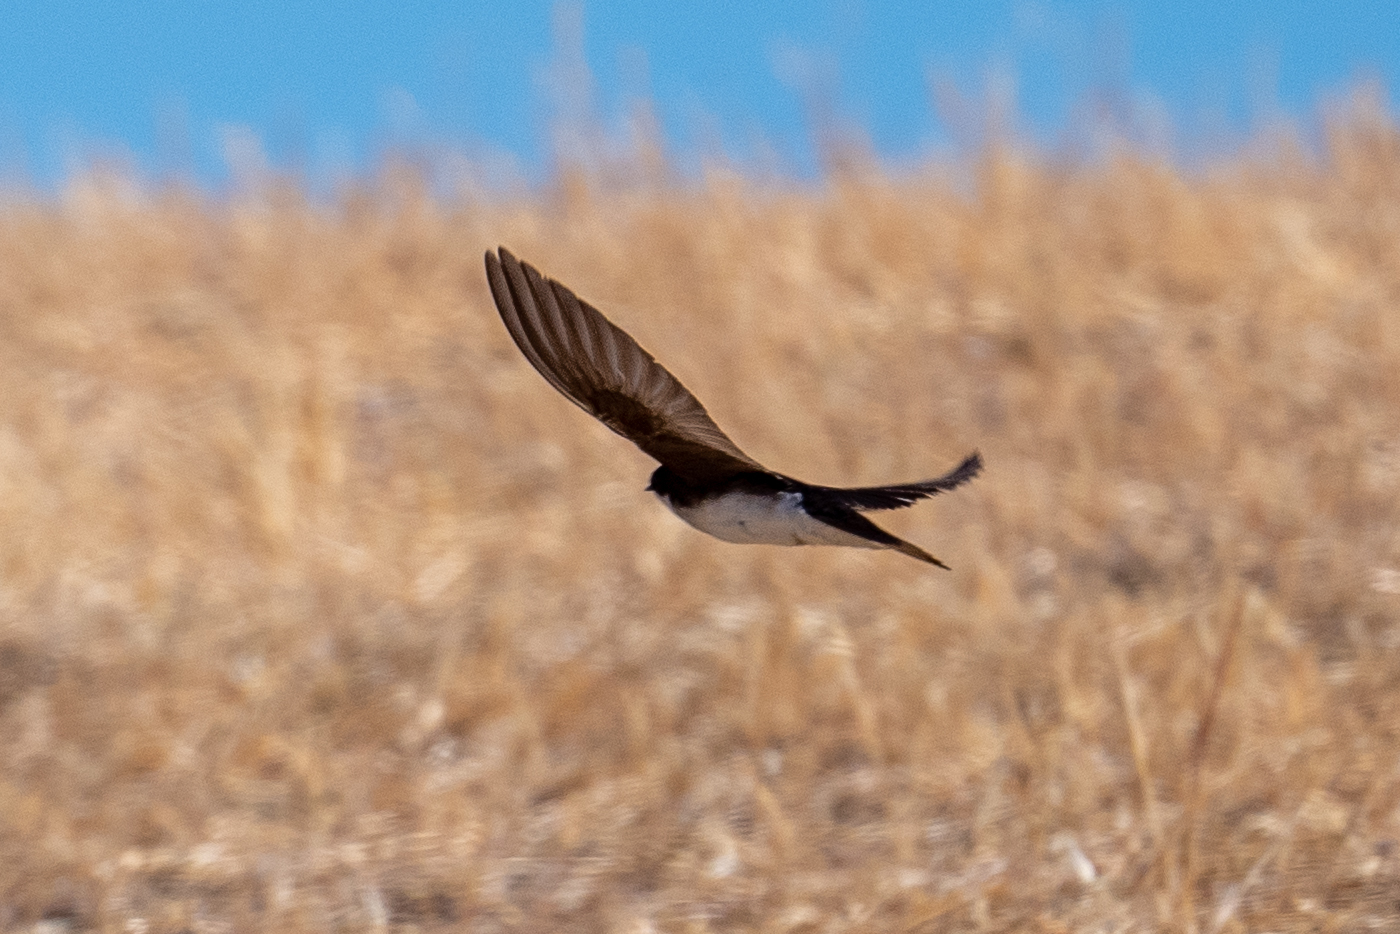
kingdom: Animalia
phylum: Chordata
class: Aves
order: Passeriformes
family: Hirundinidae
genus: Tachycineta
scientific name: Tachycineta bicolor
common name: Tree swallow
